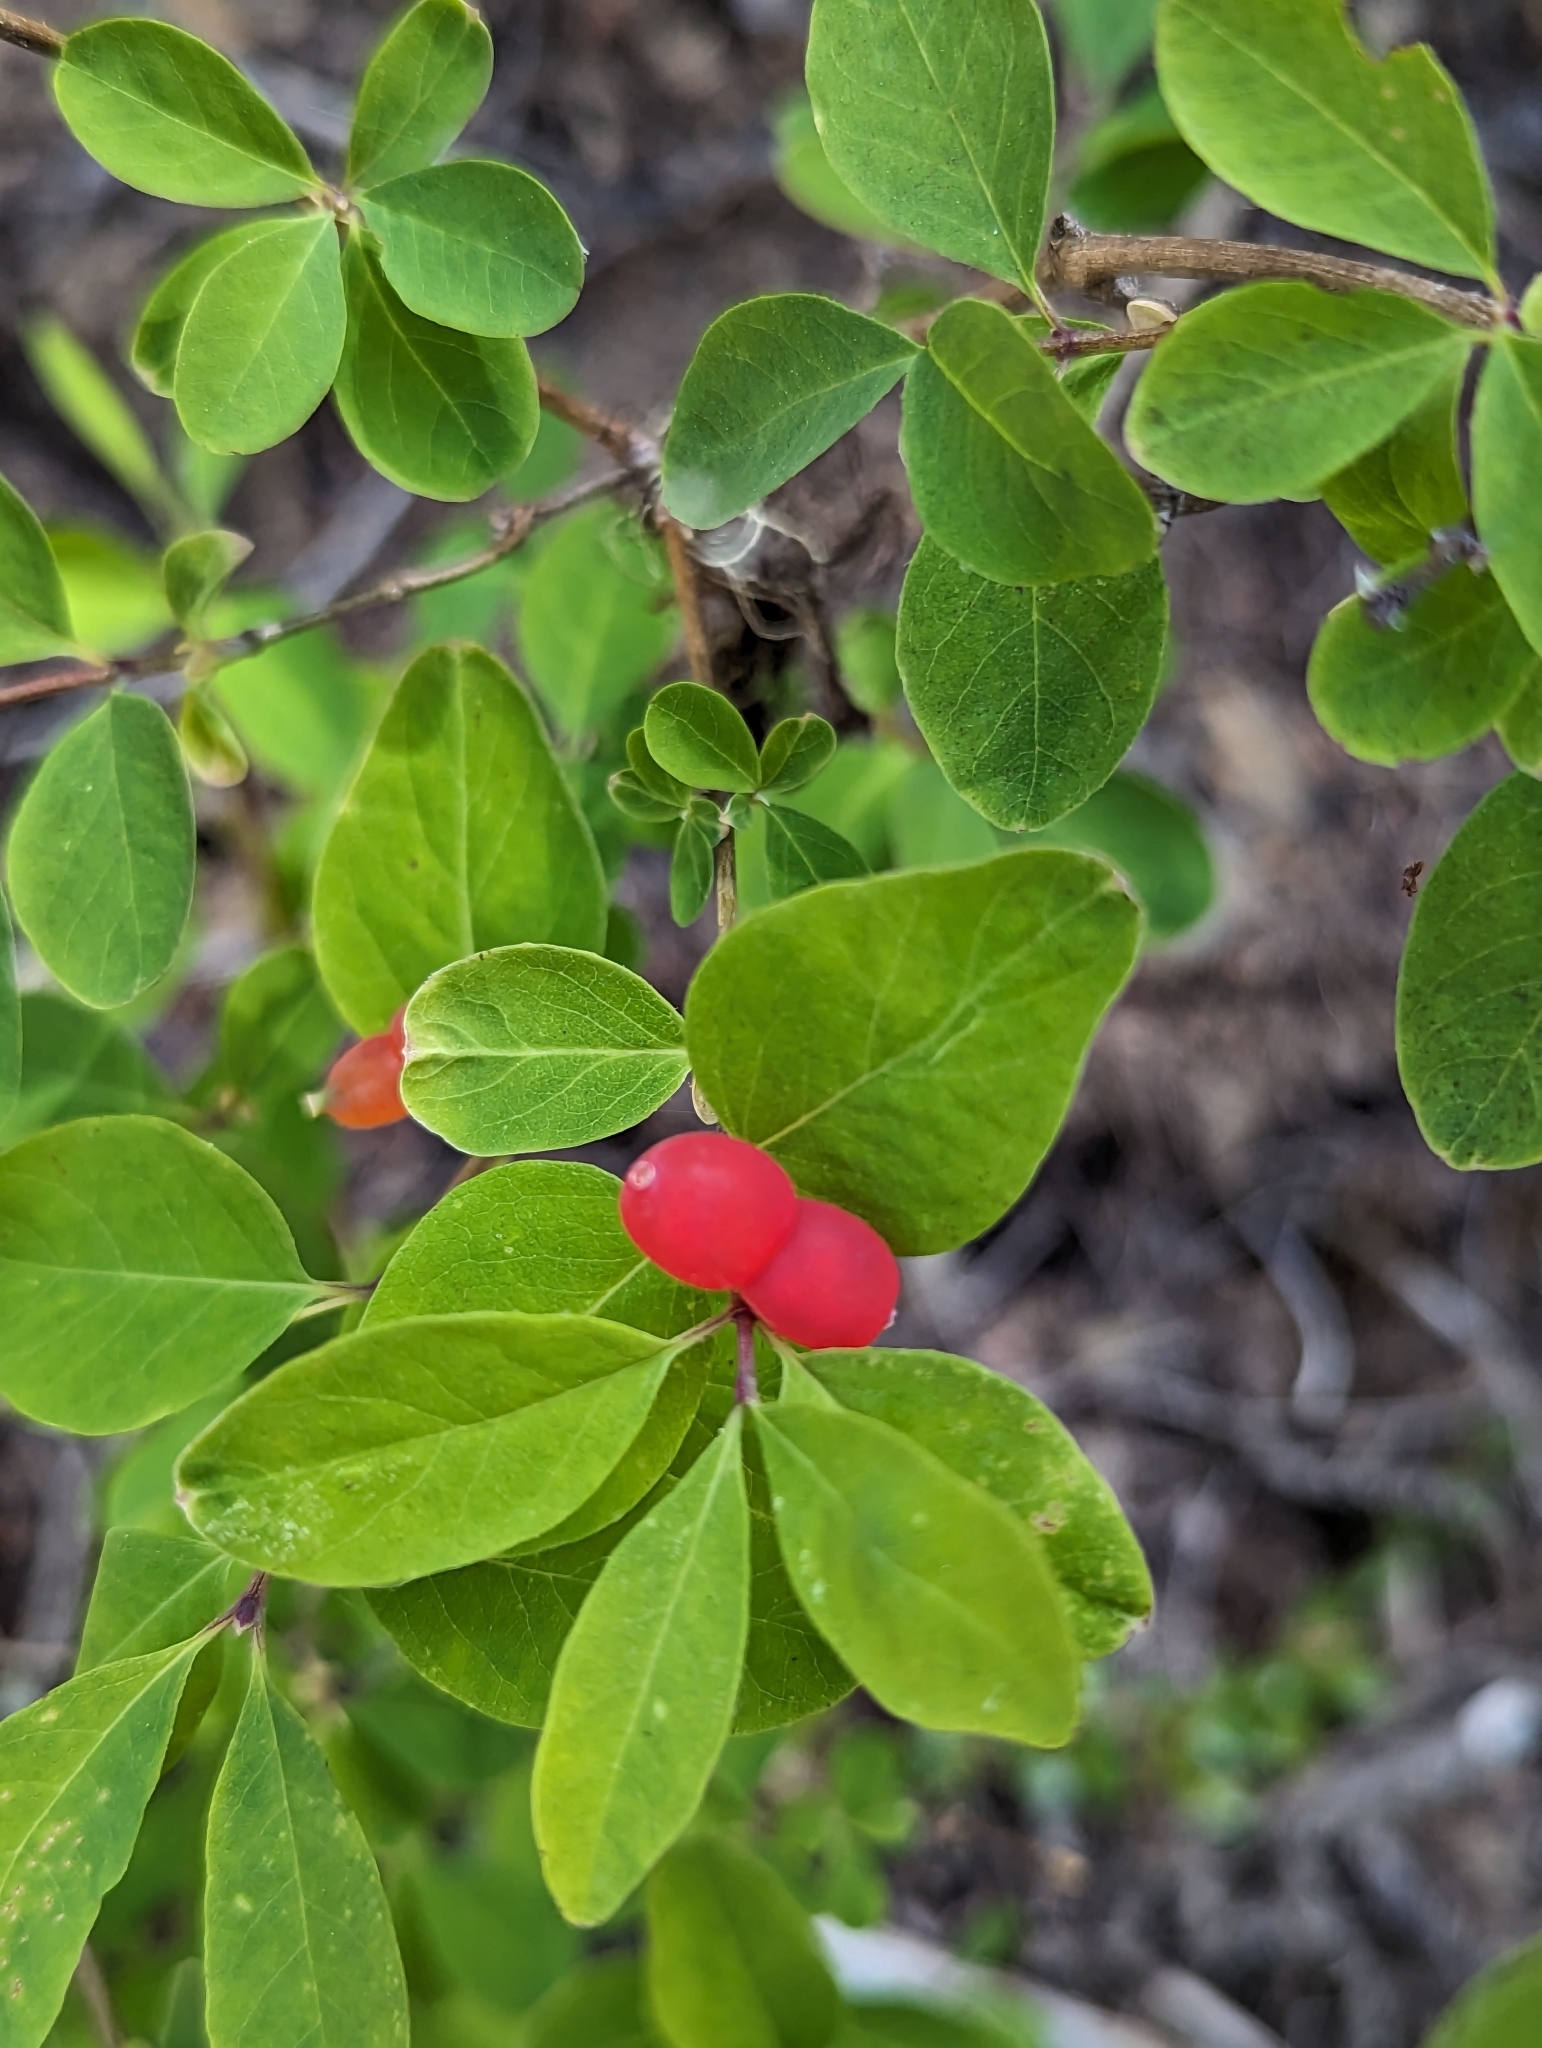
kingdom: Plantae
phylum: Tracheophyta
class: Magnoliopsida
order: Dipsacales
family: Caprifoliaceae
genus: Lonicera
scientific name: Lonicera utahensis
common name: Utah honeysuckle
